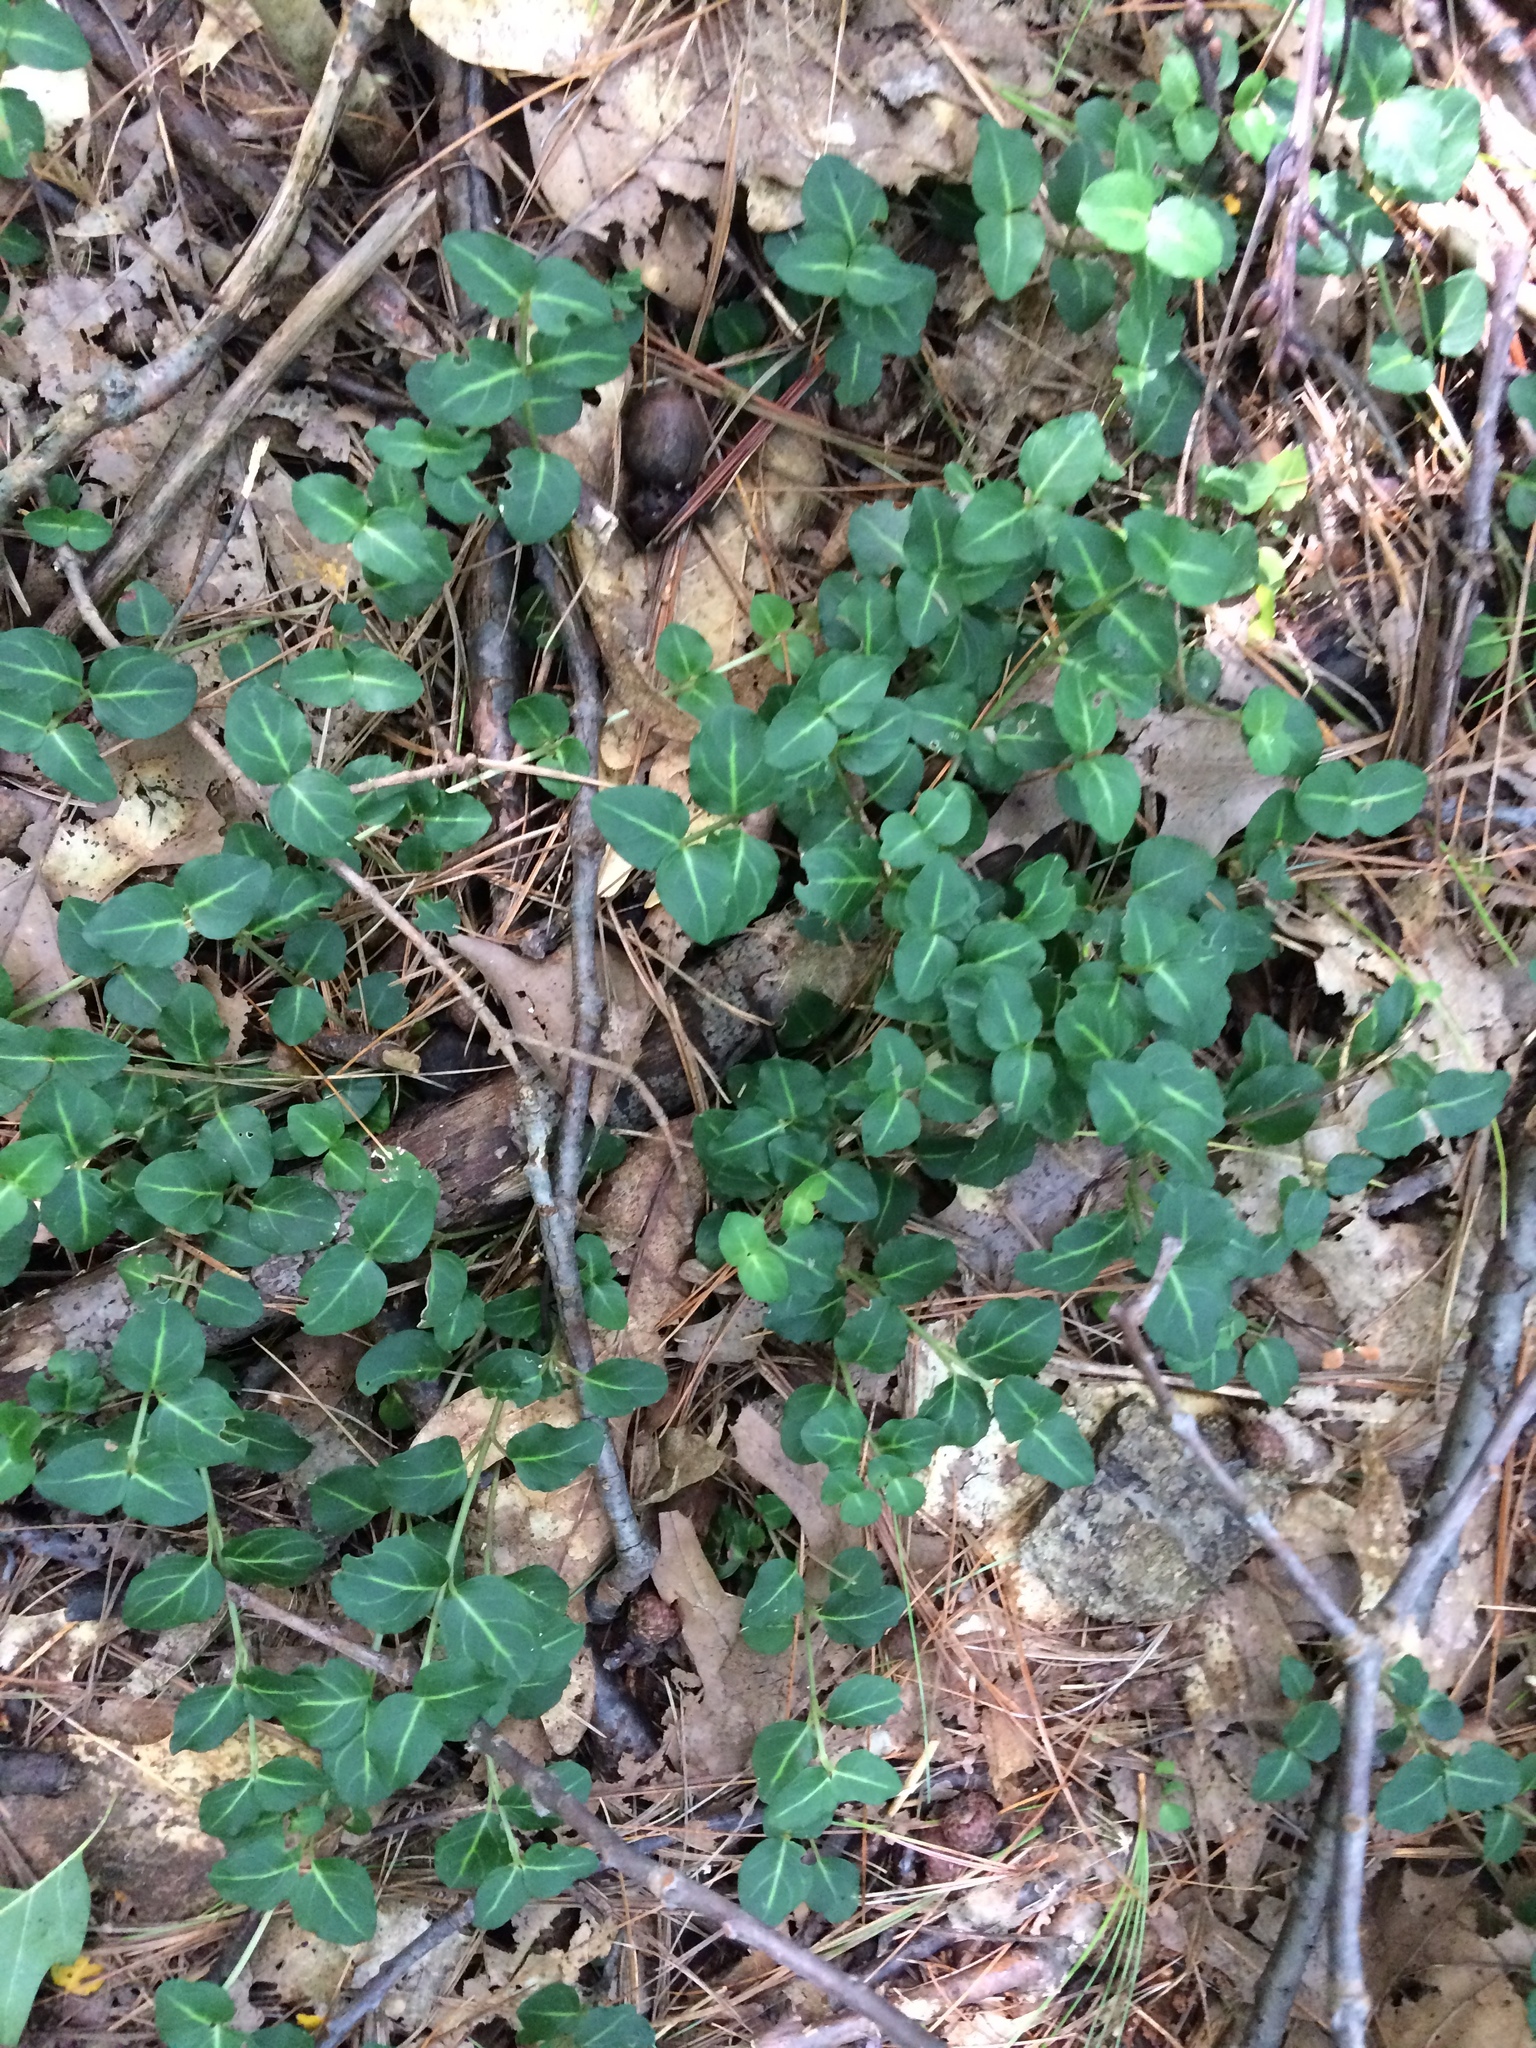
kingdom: Plantae
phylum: Tracheophyta
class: Magnoliopsida
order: Gentianales
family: Rubiaceae
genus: Mitchella
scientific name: Mitchella repens
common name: Partridge-berry
